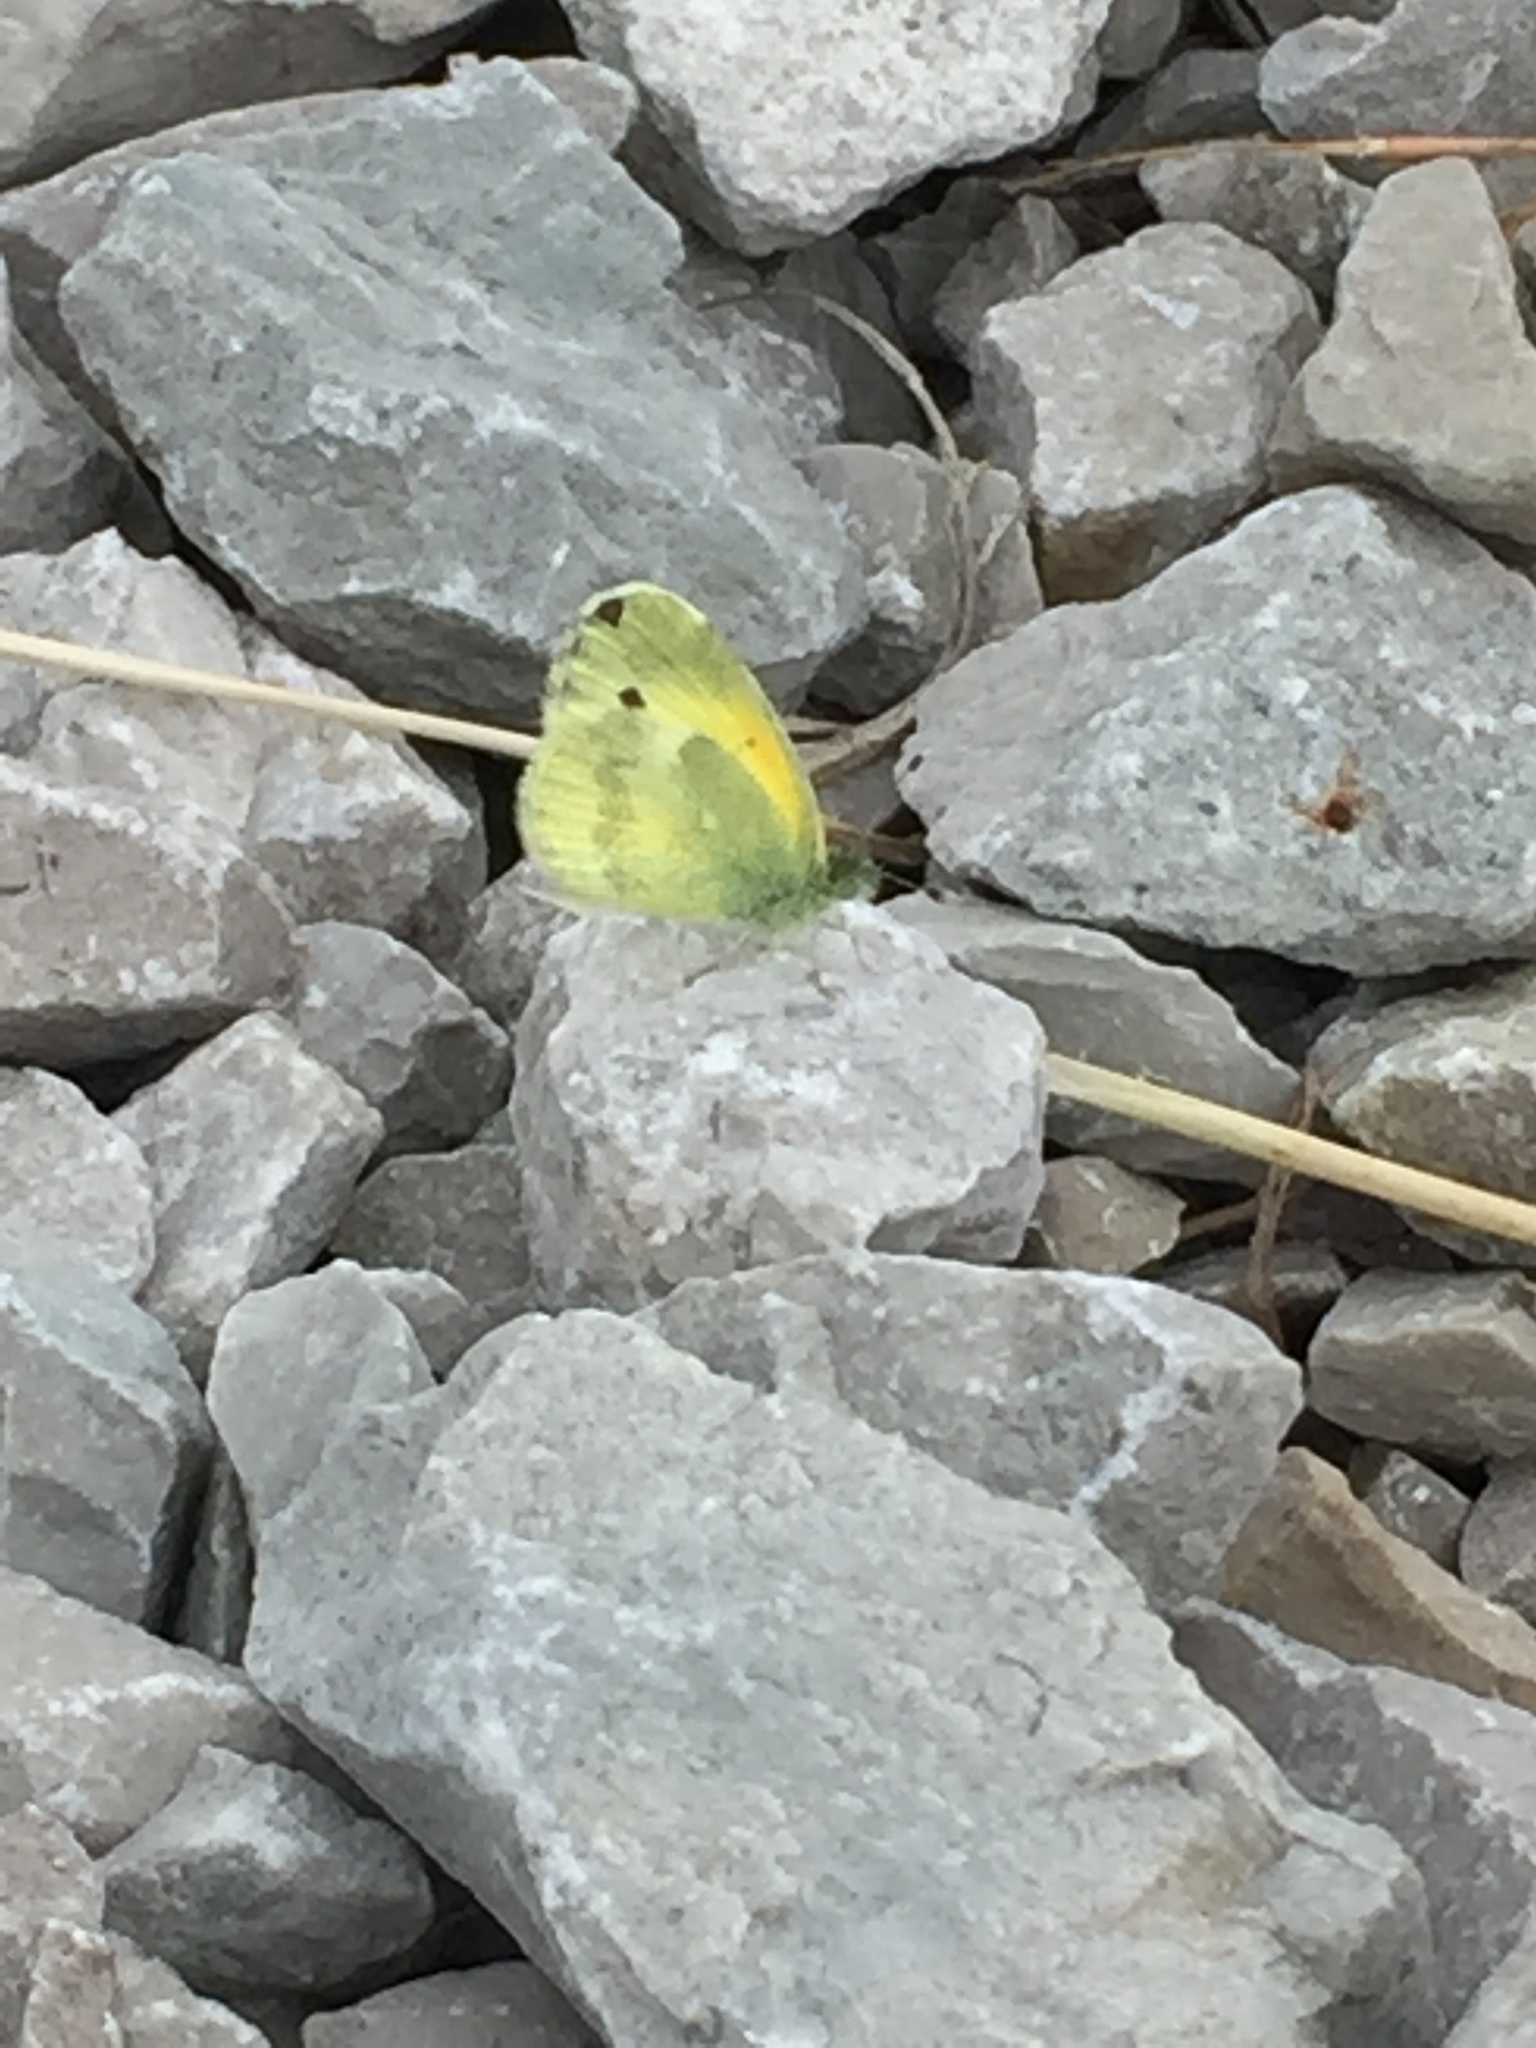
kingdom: Animalia
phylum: Arthropoda
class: Insecta
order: Lepidoptera
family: Pieridae
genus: Nathalis
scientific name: Nathalis iole
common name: Dainty sulphur
